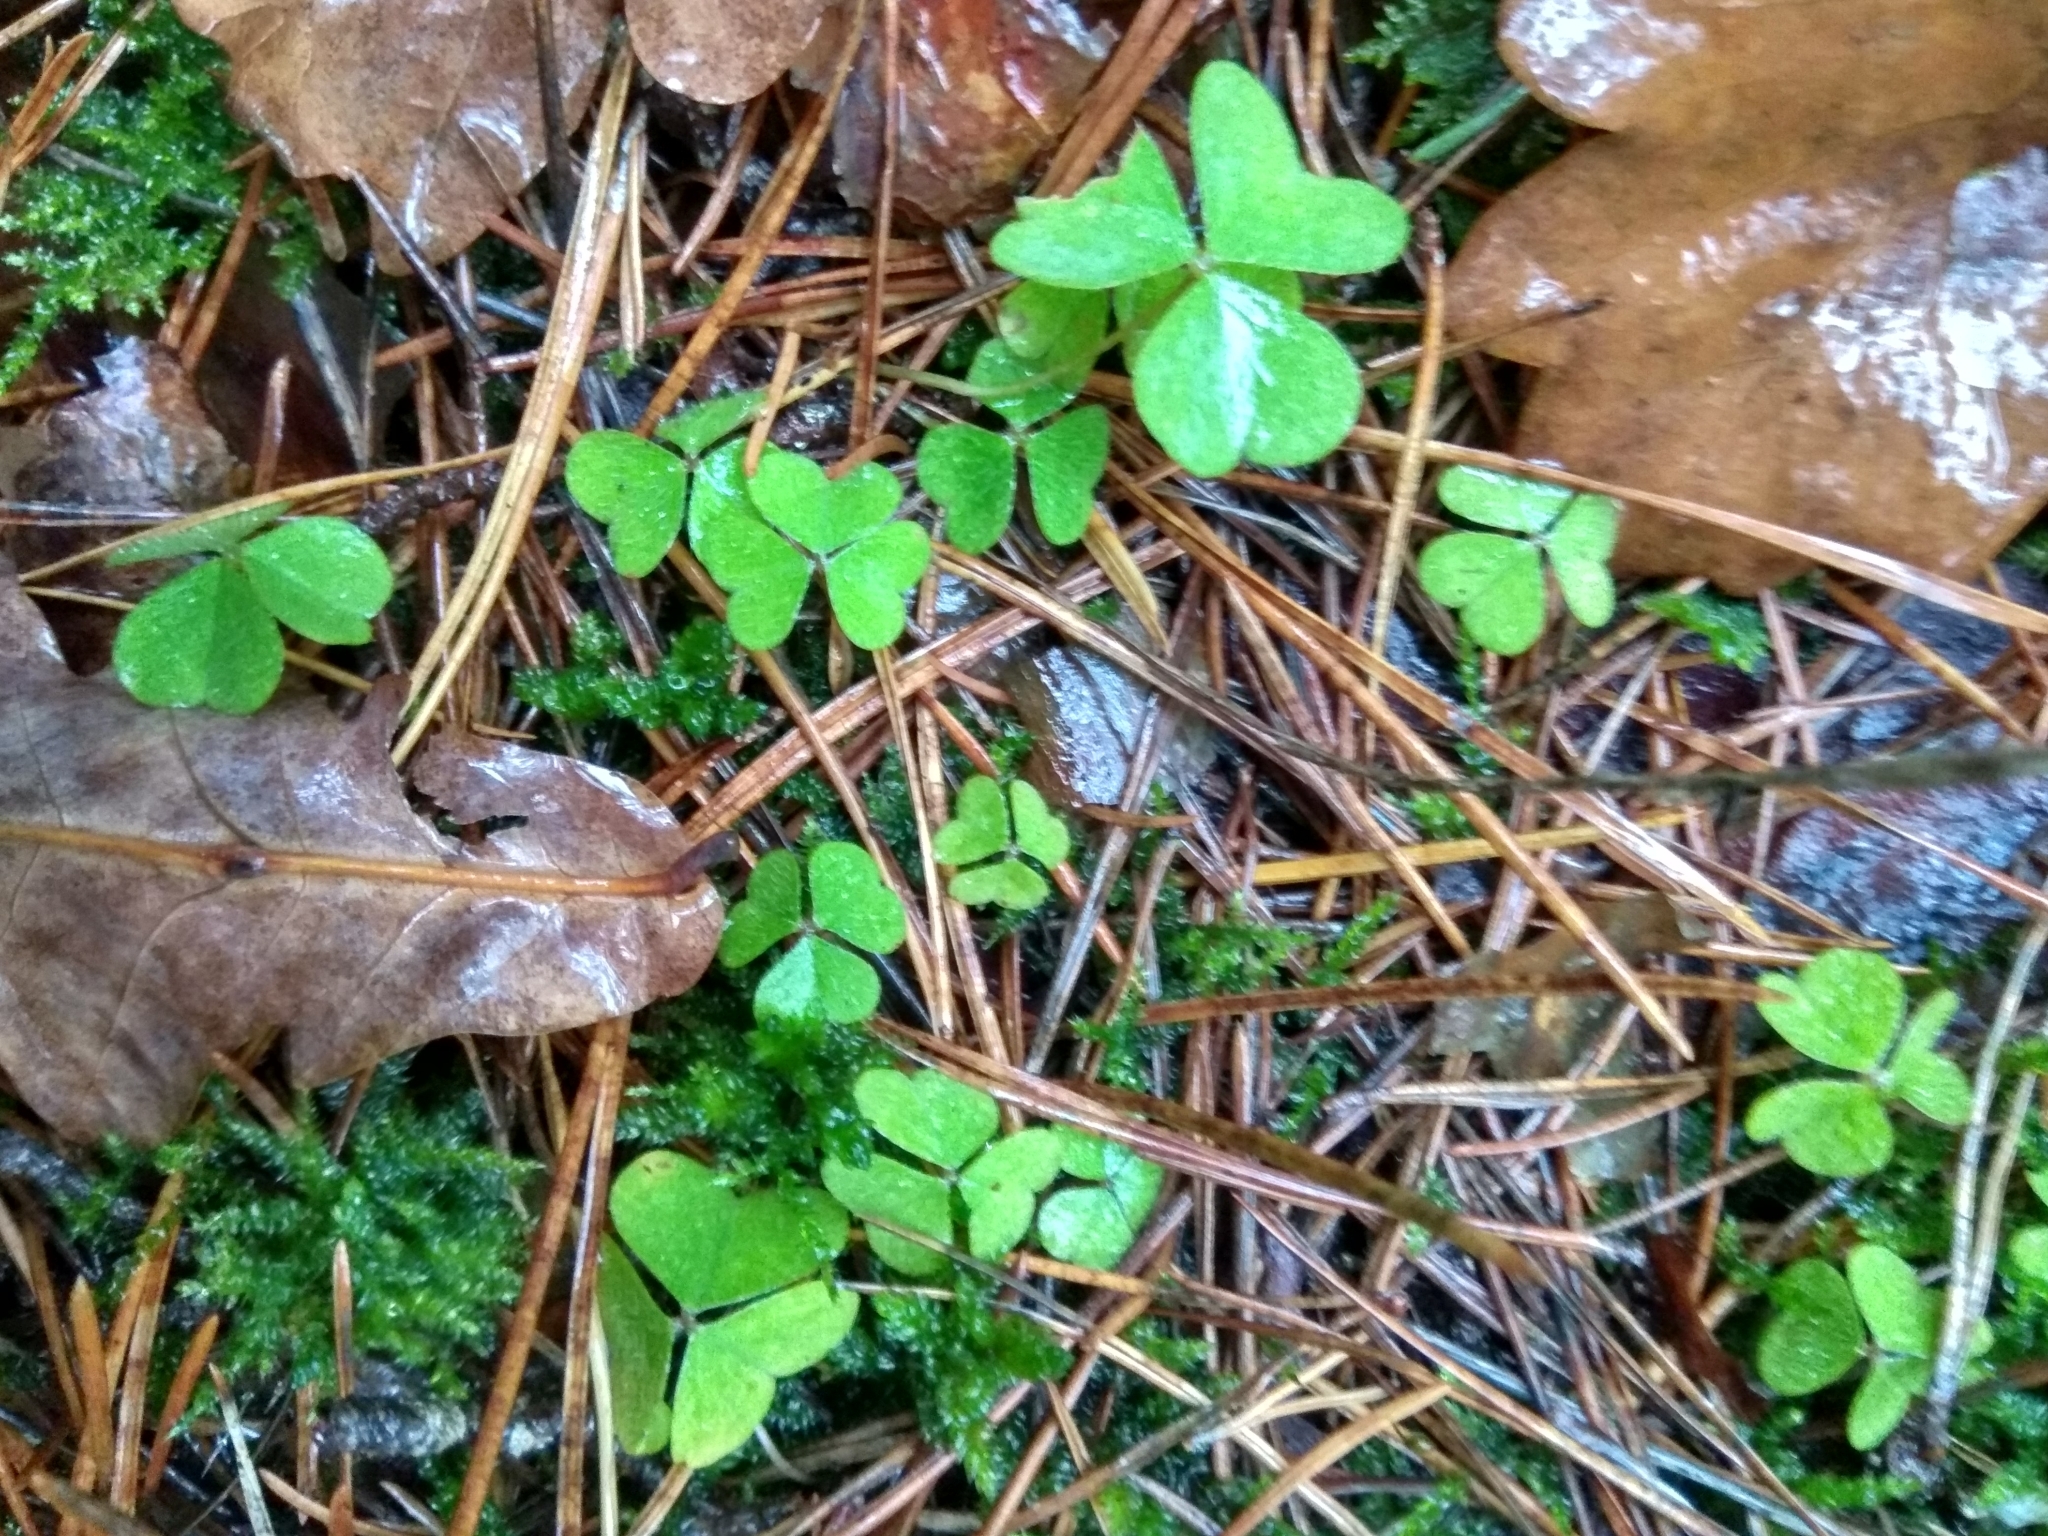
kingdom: Plantae
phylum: Tracheophyta
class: Magnoliopsida
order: Oxalidales
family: Oxalidaceae
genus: Oxalis
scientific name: Oxalis acetosella
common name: Wood-sorrel
